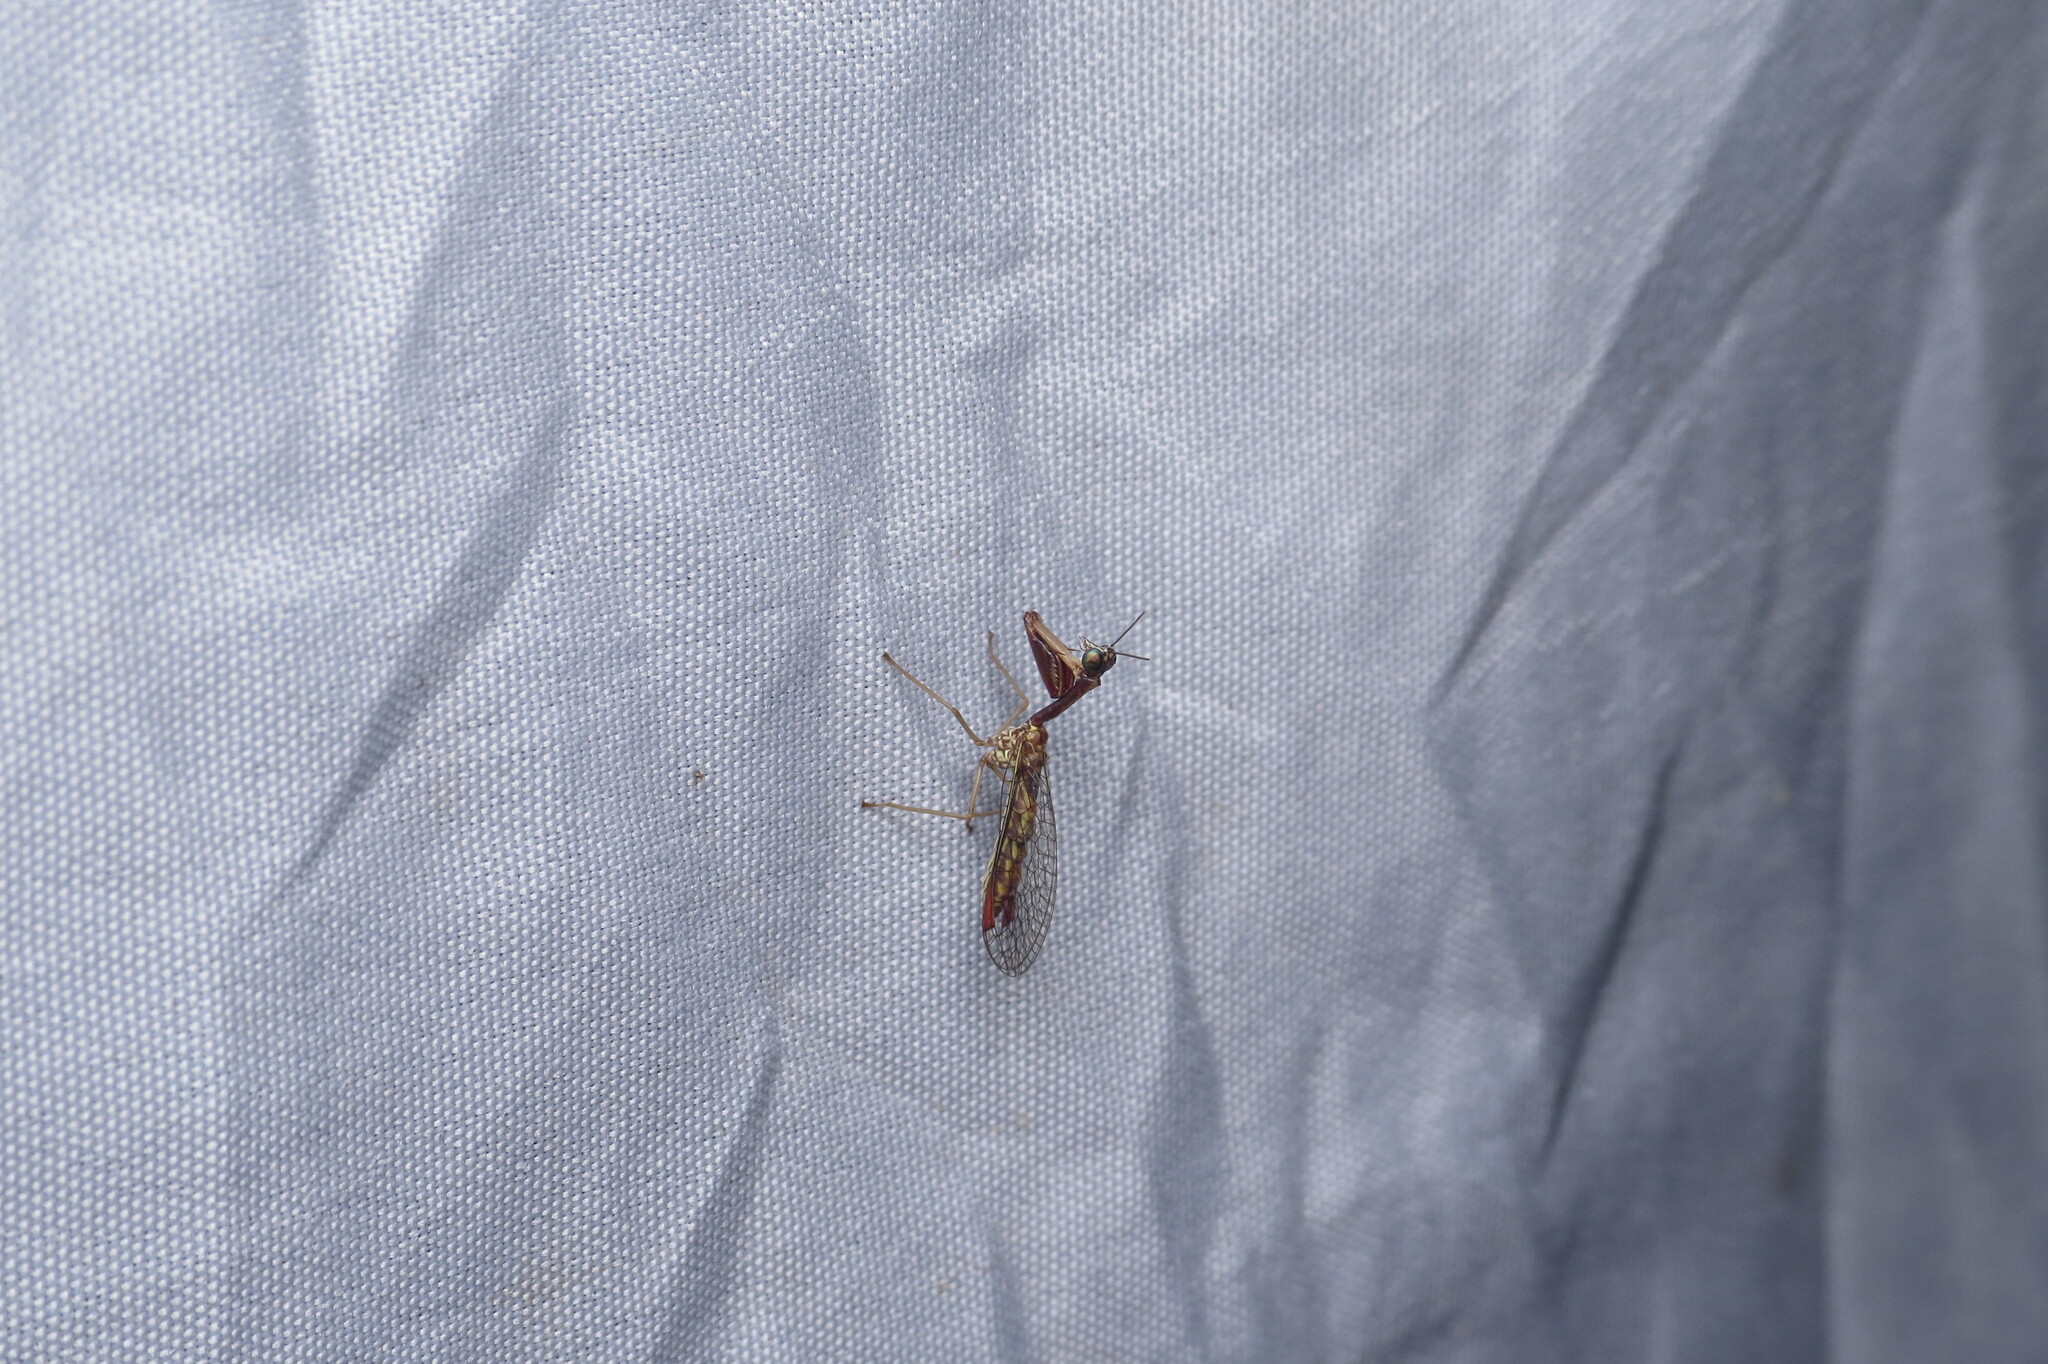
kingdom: Animalia
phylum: Arthropoda
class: Insecta
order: Neuroptera
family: Mantispidae
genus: Leptomantispa
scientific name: Leptomantispa pulchella
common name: Stevens's mantidfly
